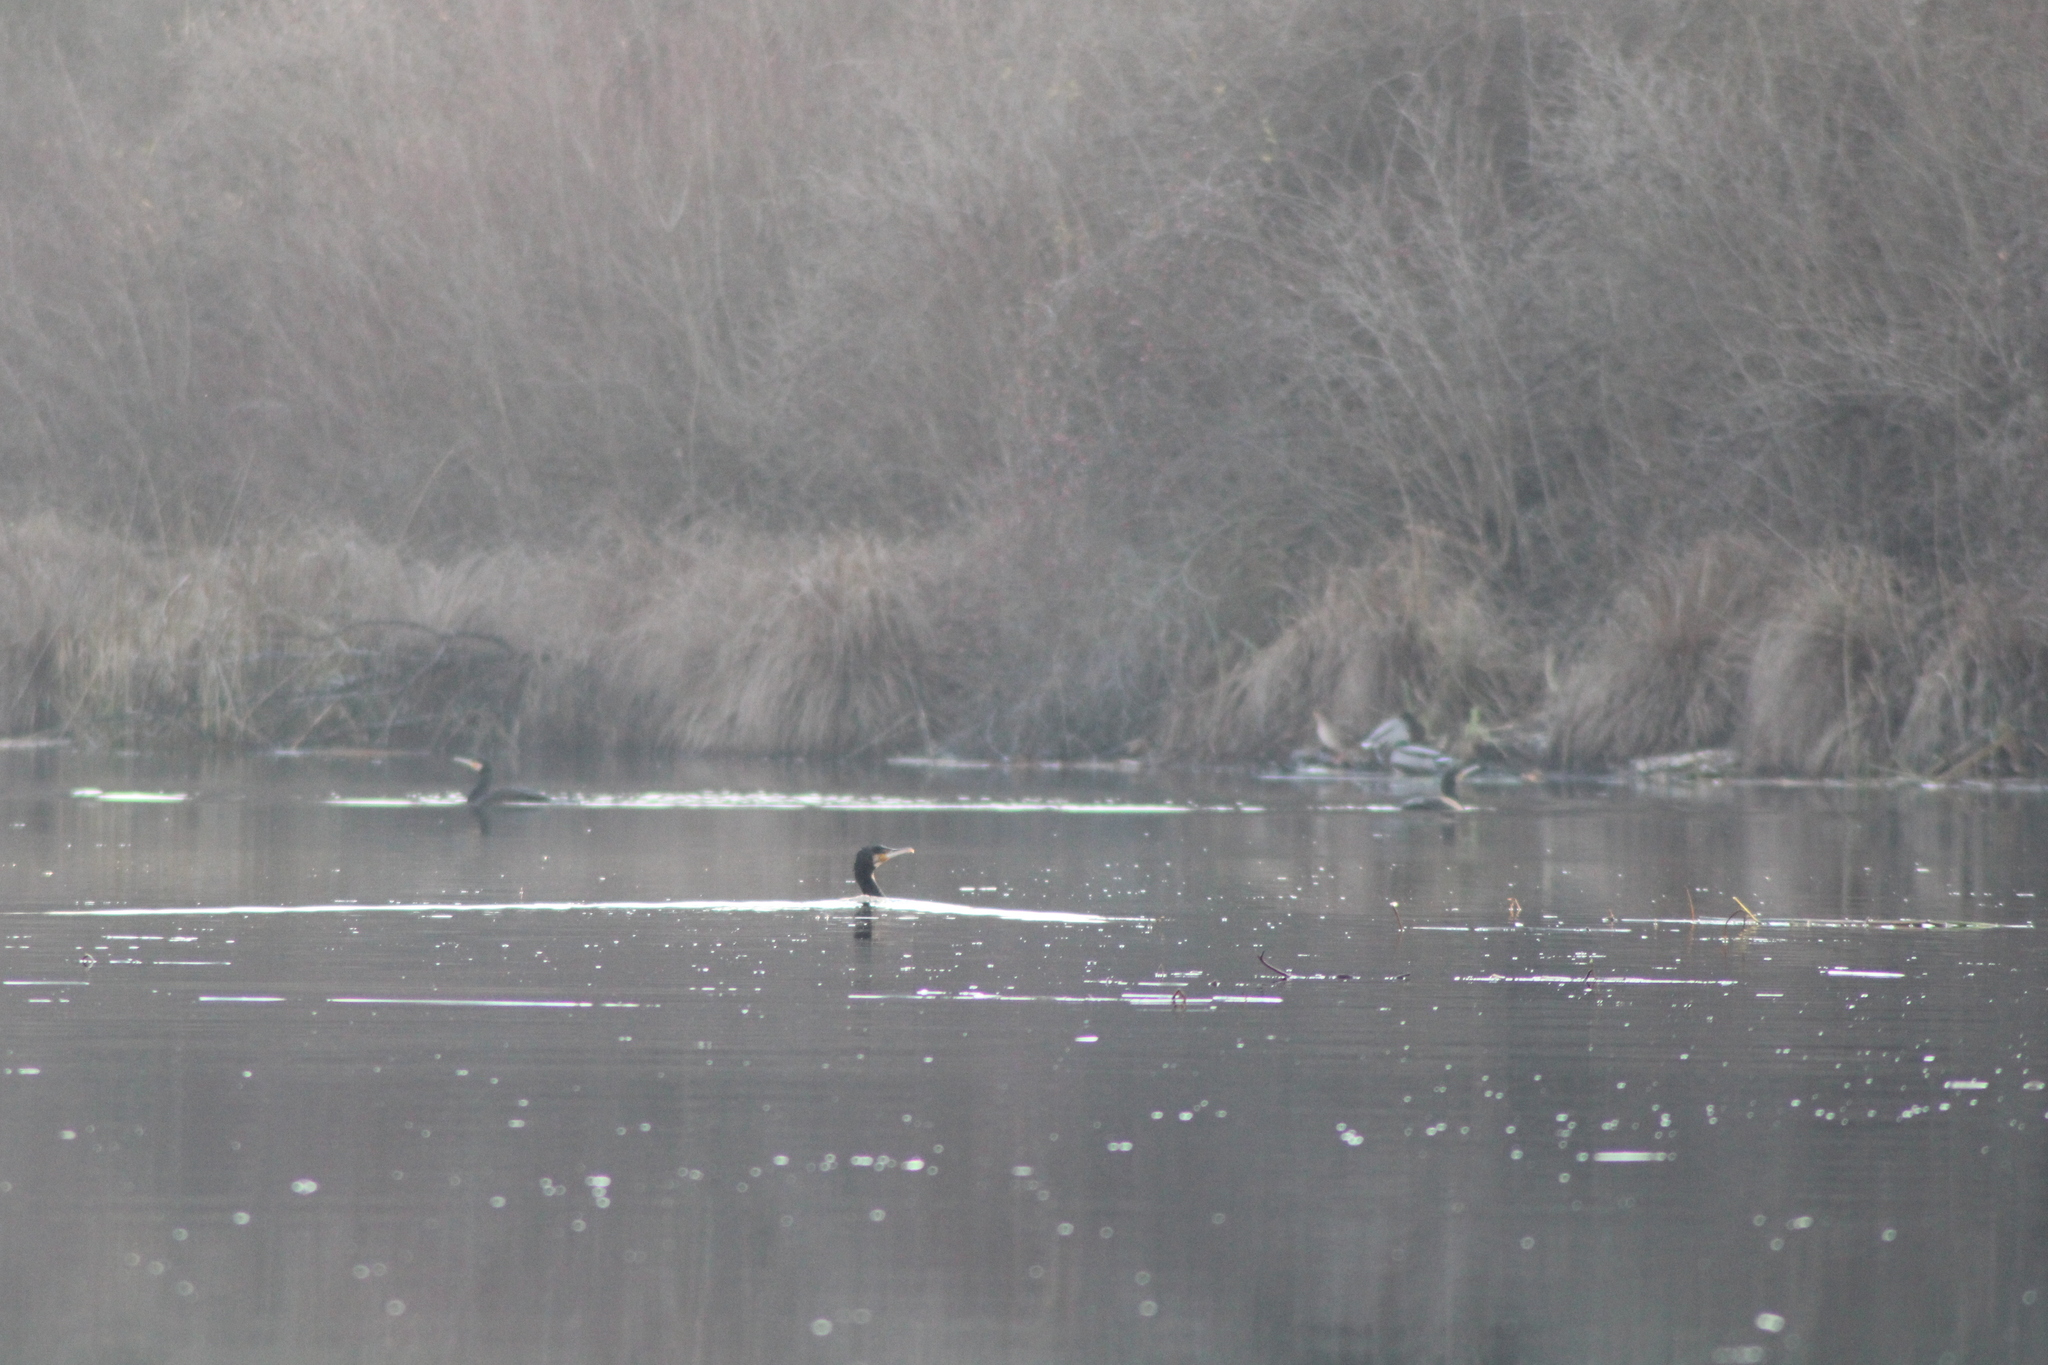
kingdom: Animalia
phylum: Chordata
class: Aves
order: Suliformes
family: Phalacrocoracidae
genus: Phalacrocorax
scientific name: Phalacrocorax carbo
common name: Great cormorant
